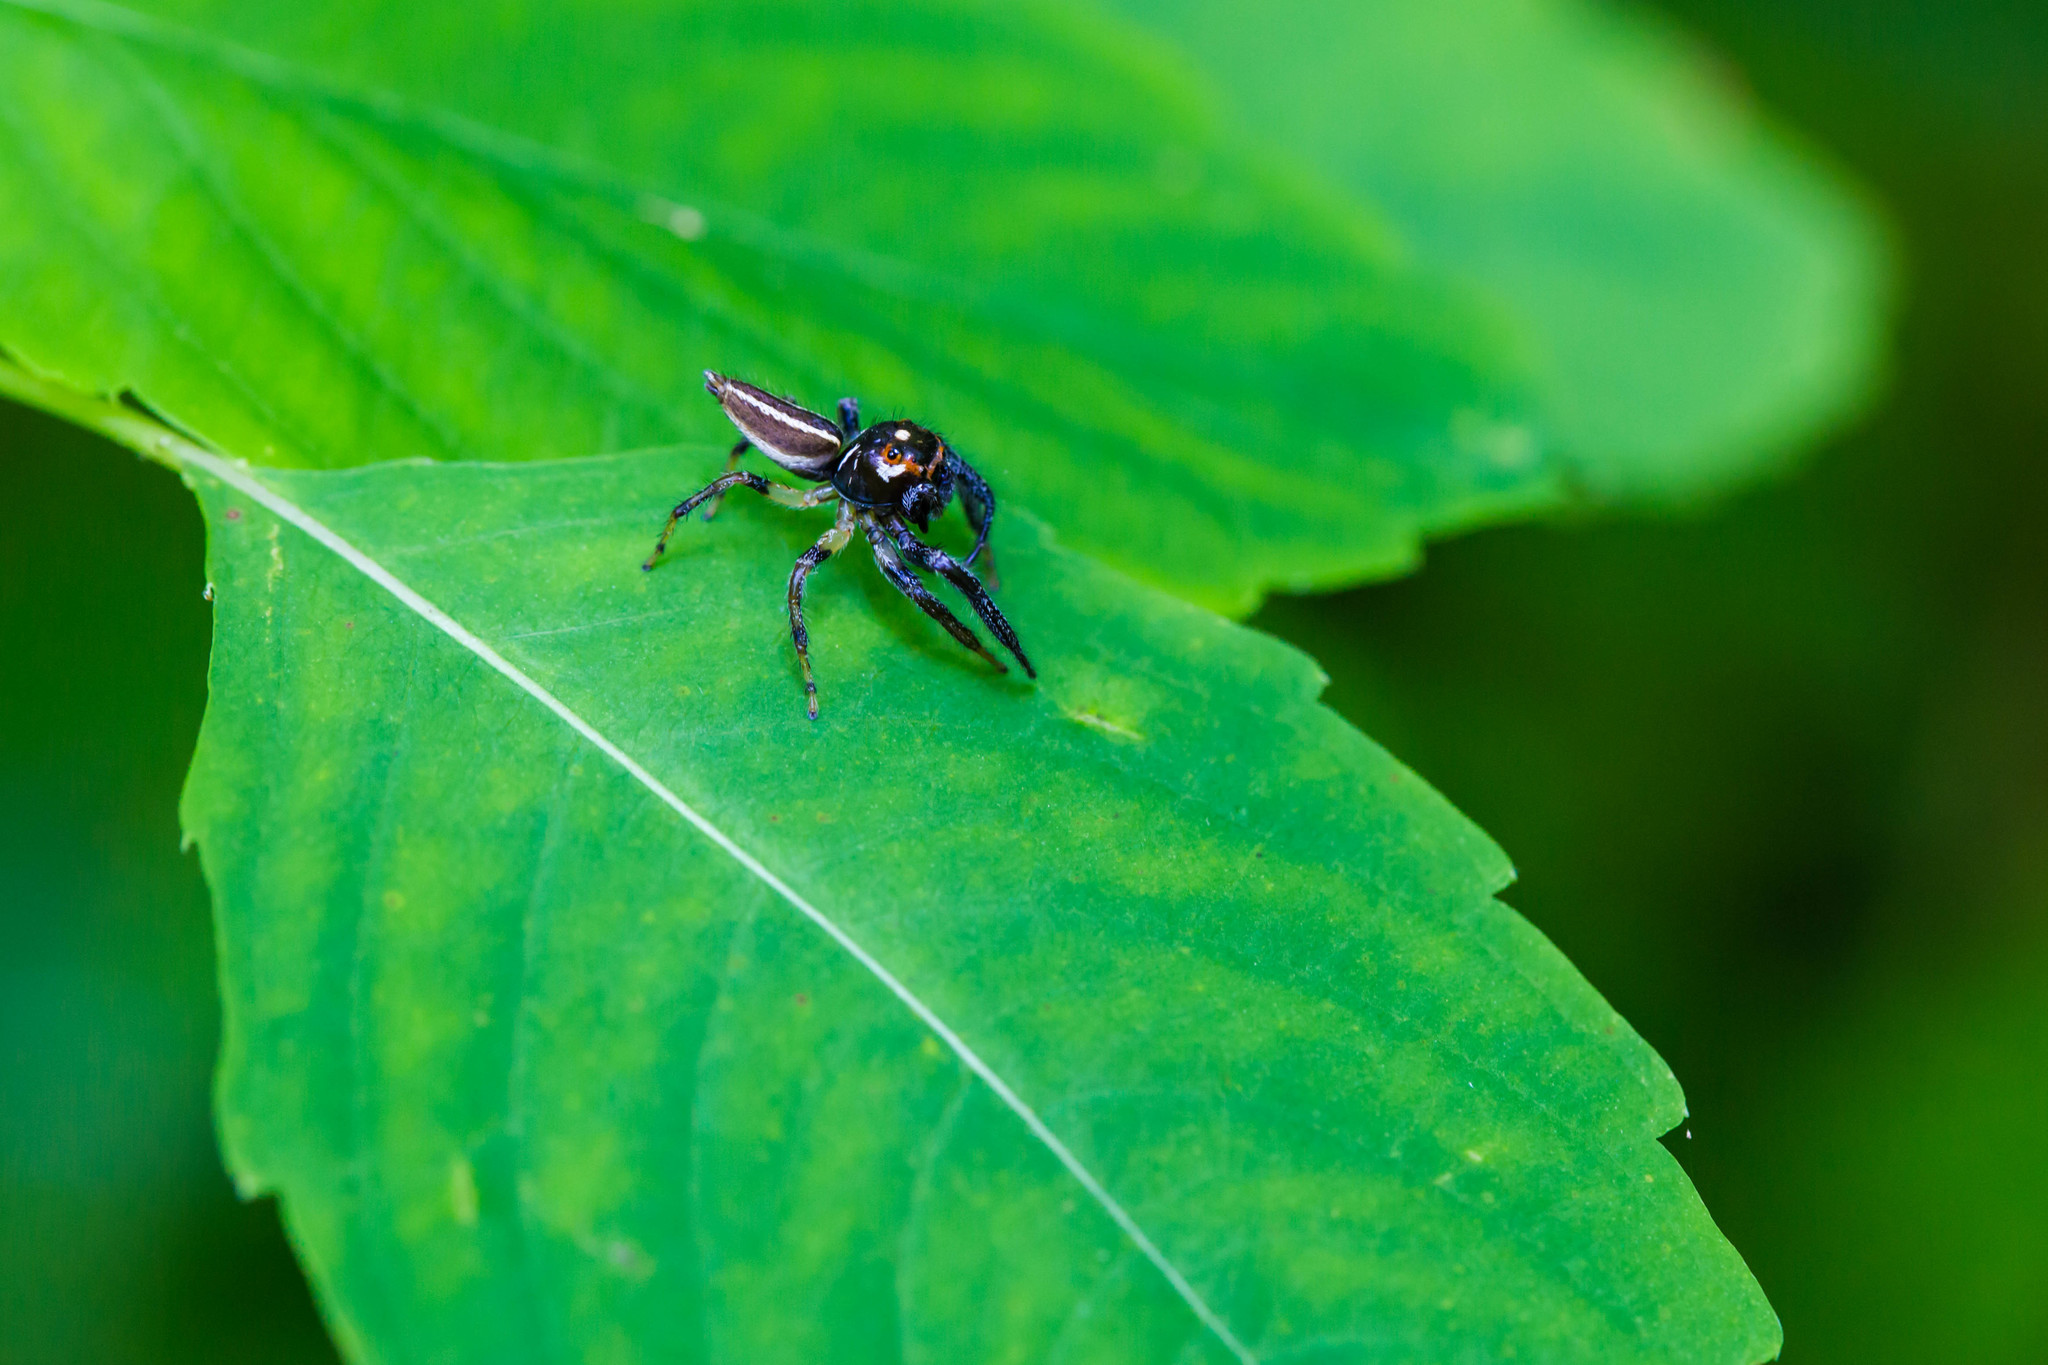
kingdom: Animalia
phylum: Arthropoda
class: Arachnida
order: Araneae
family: Salticidae
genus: Colonus
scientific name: Colonus sylvanus
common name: Jumping spiders
